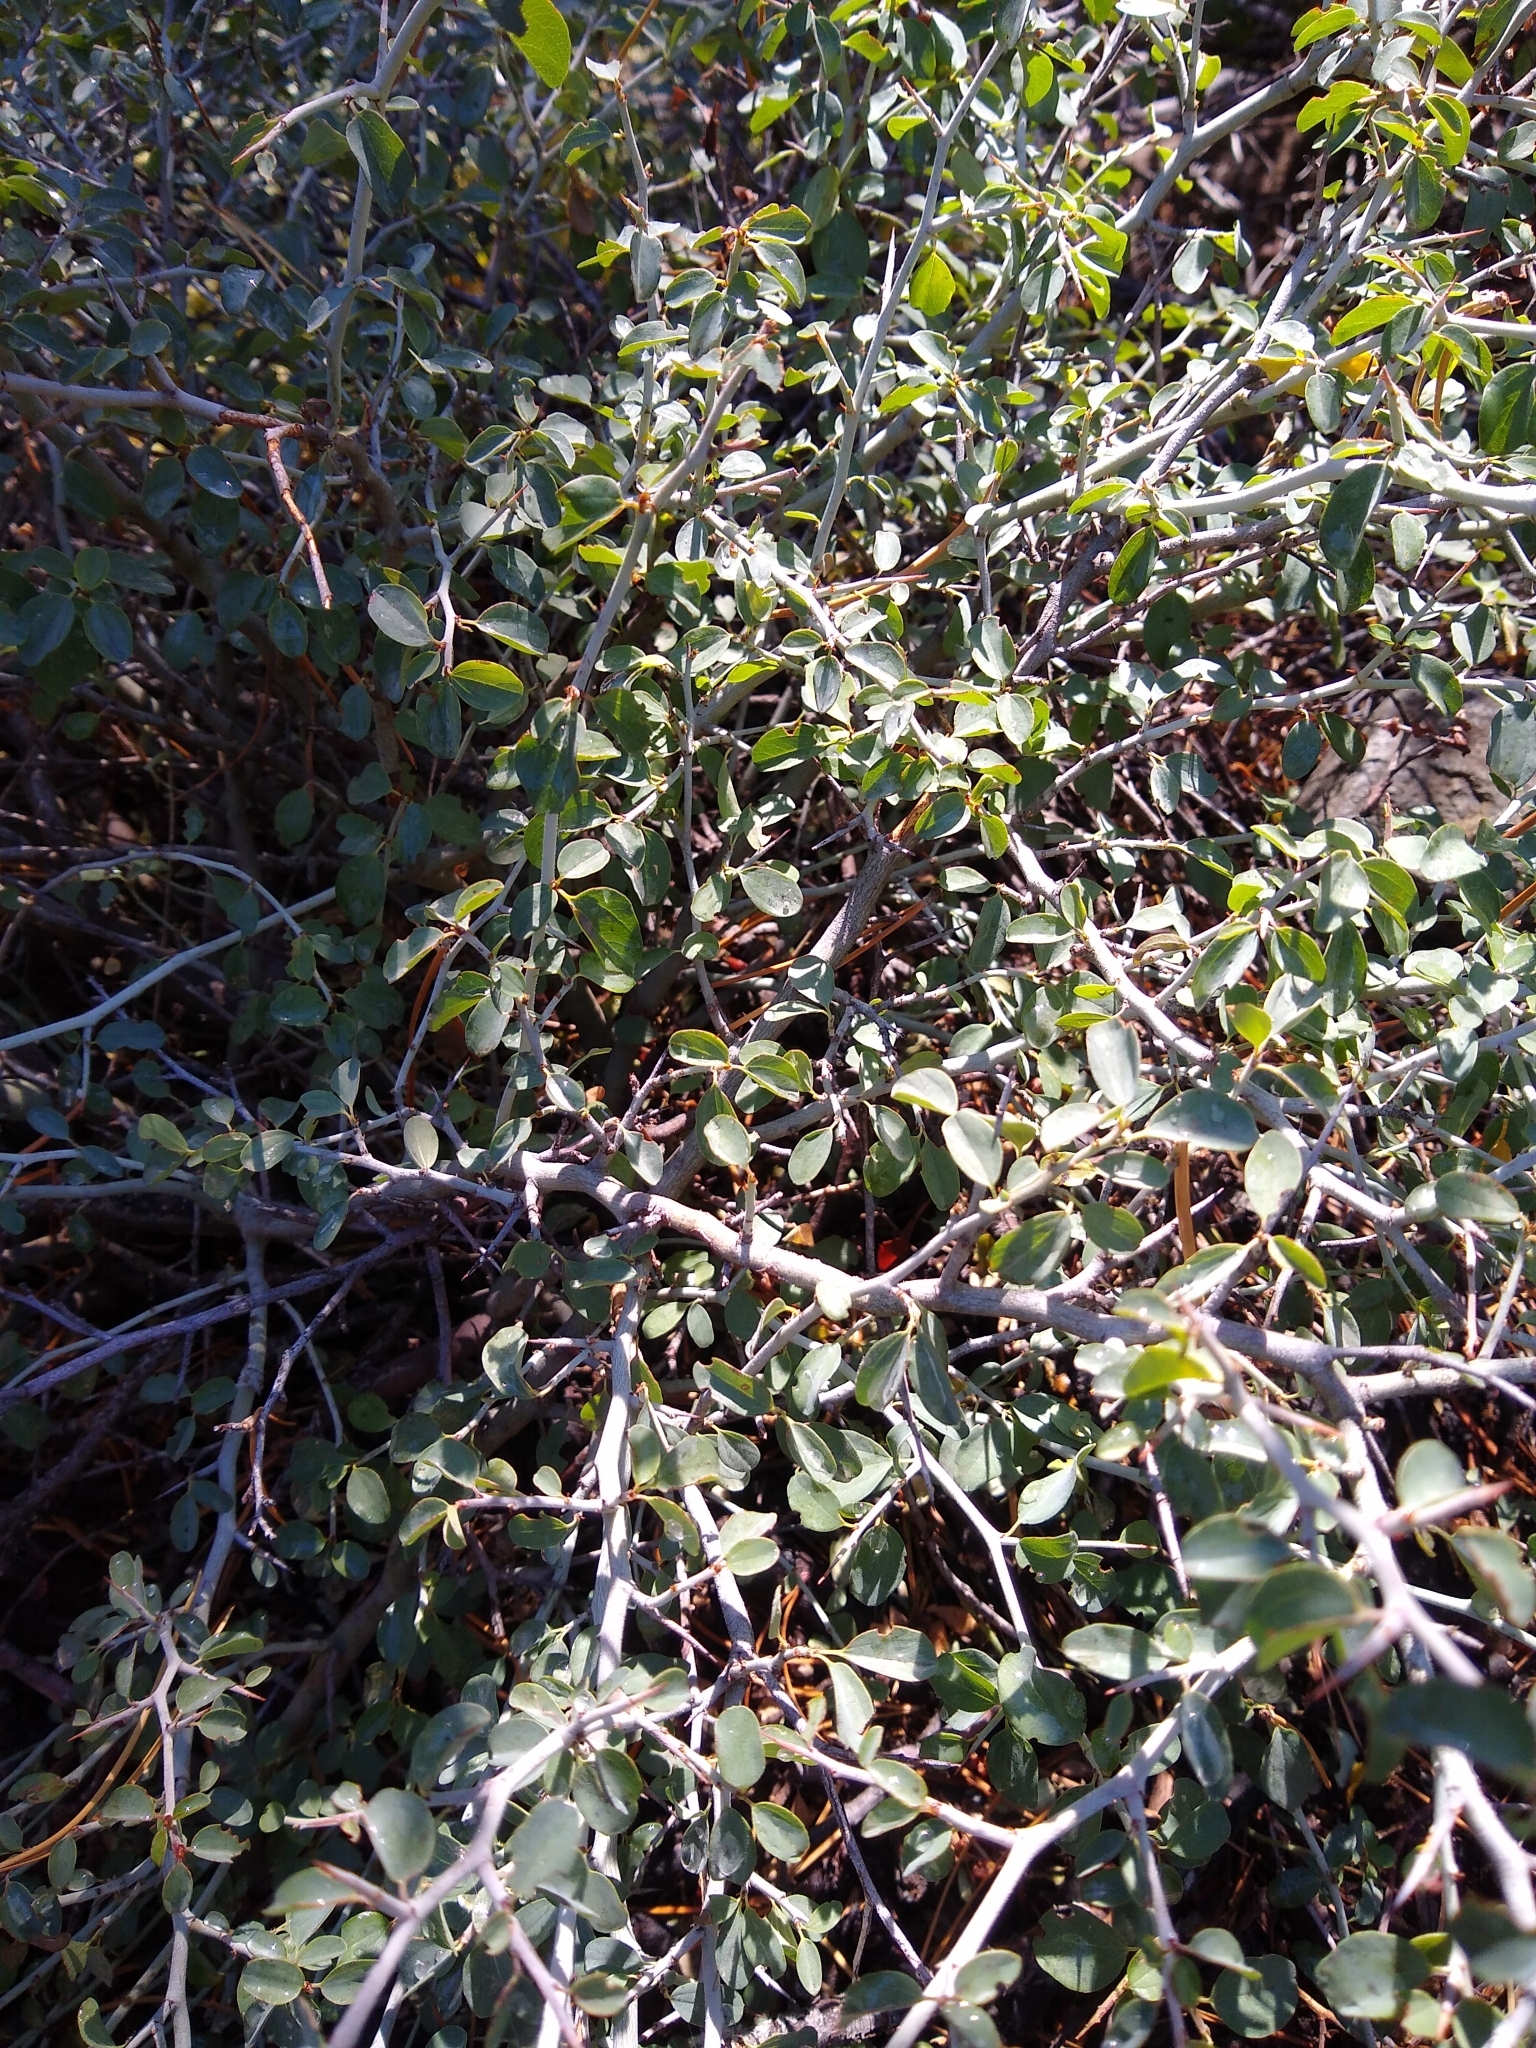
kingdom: Plantae
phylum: Tracheophyta
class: Magnoliopsida
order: Rosales
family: Rhamnaceae
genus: Ceanothus
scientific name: Ceanothus cordulatus
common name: Mountain whitethorn
